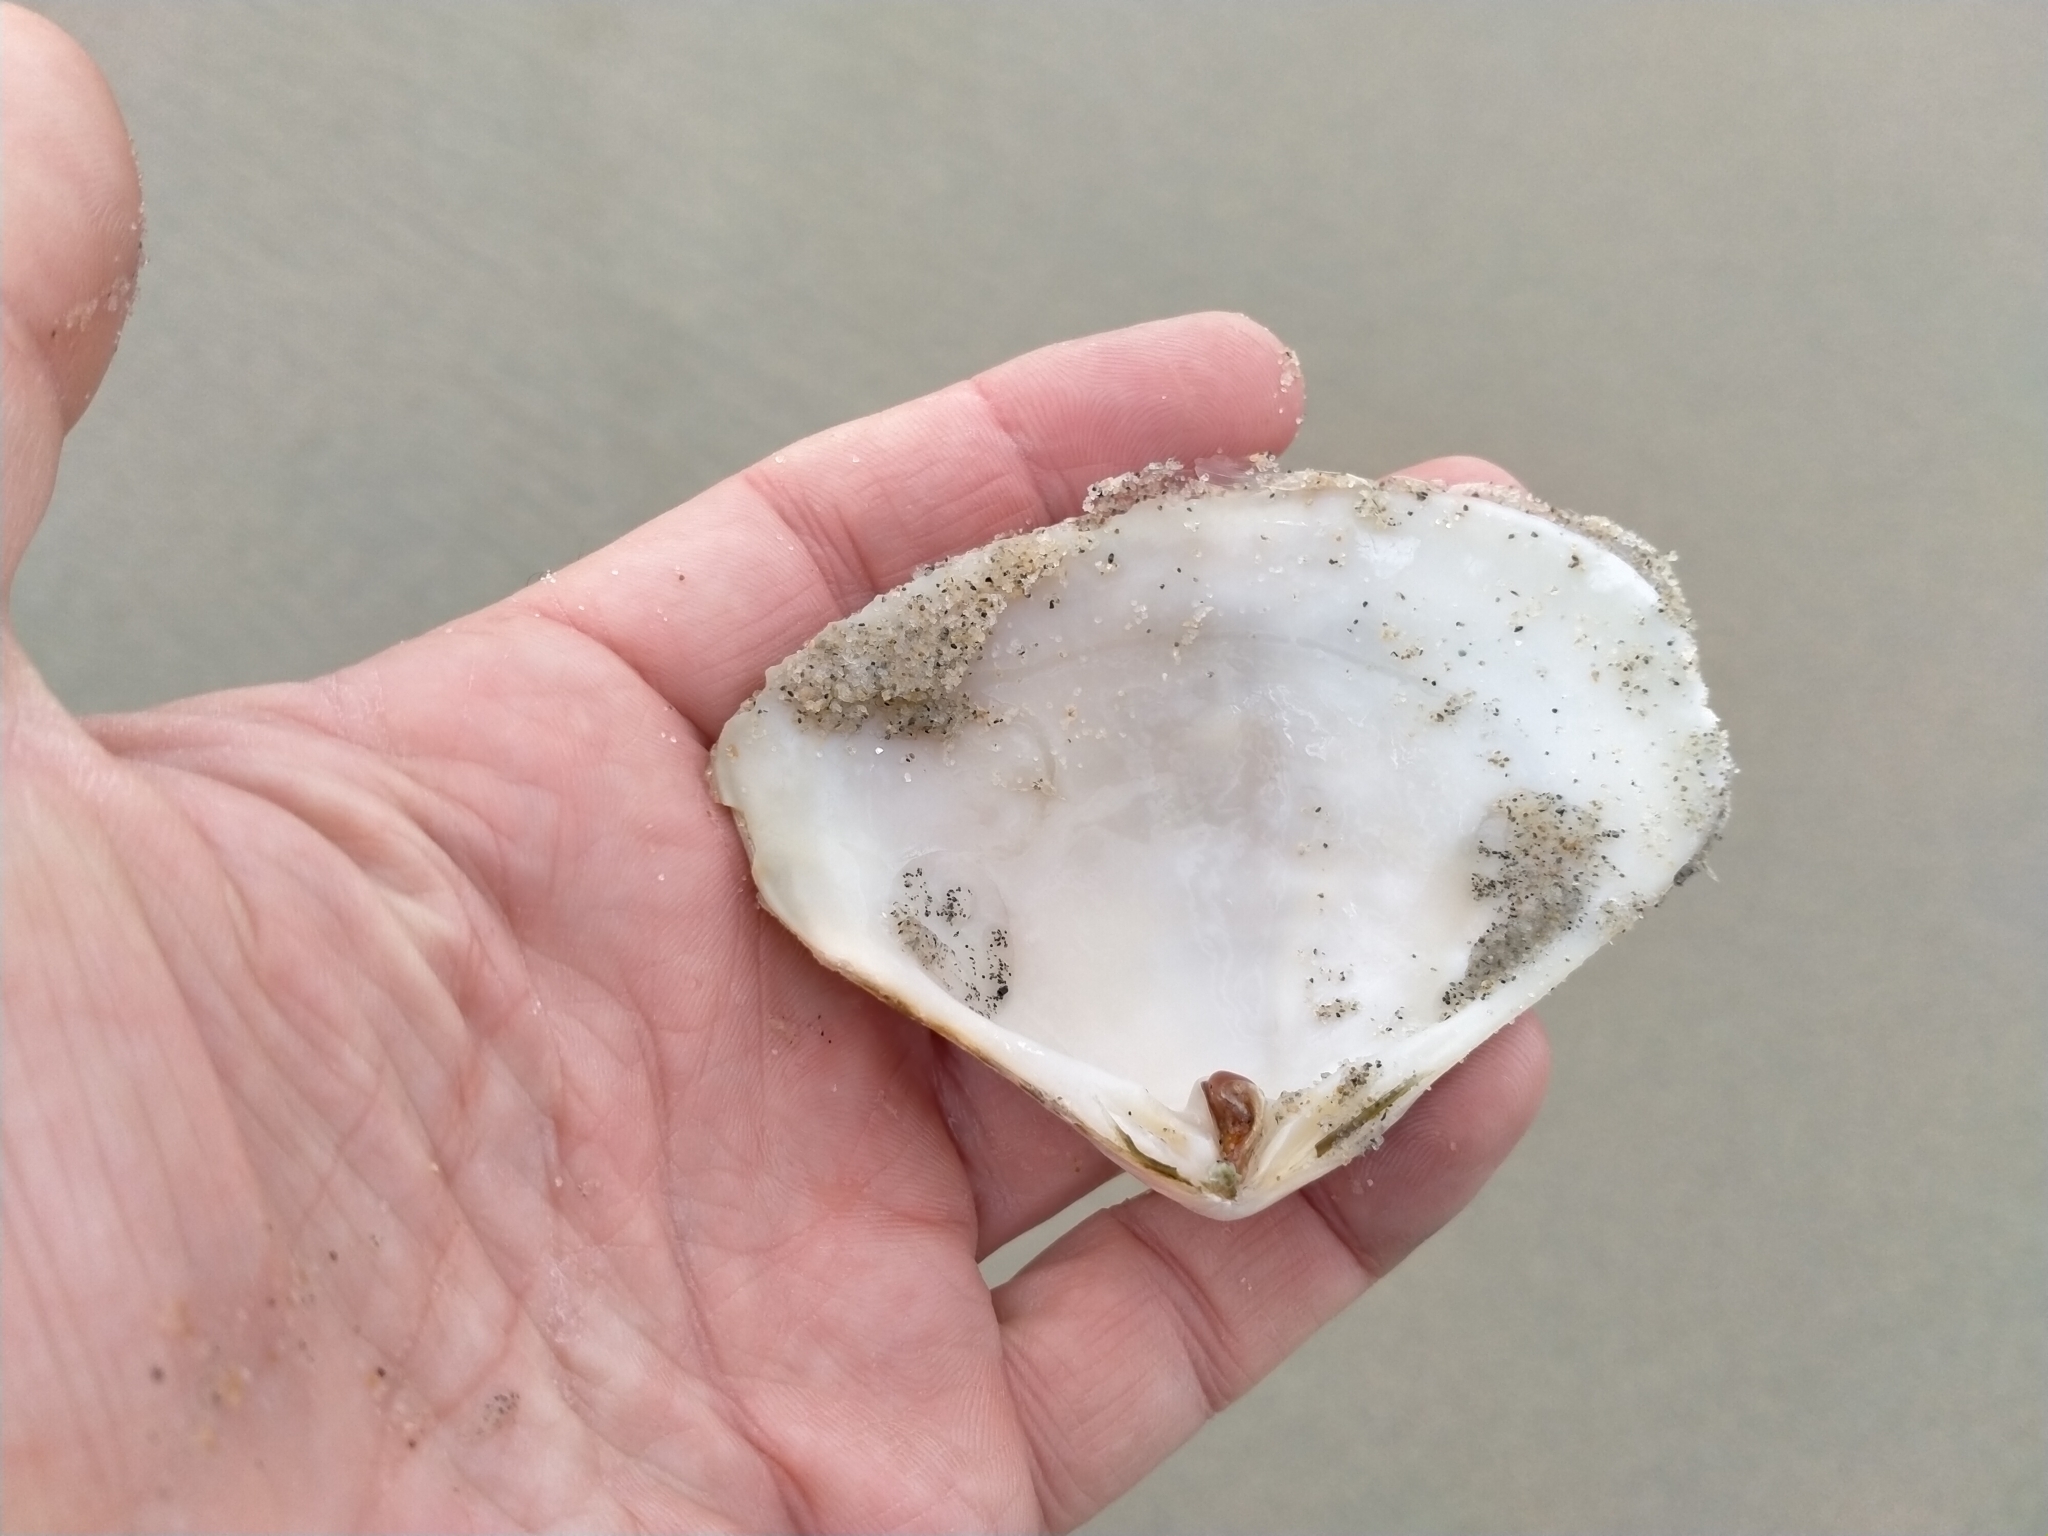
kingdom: Animalia
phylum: Mollusca
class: Bivalvia
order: Venerida
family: Mesodesmatidae
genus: Paphies
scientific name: Paphies donacina
